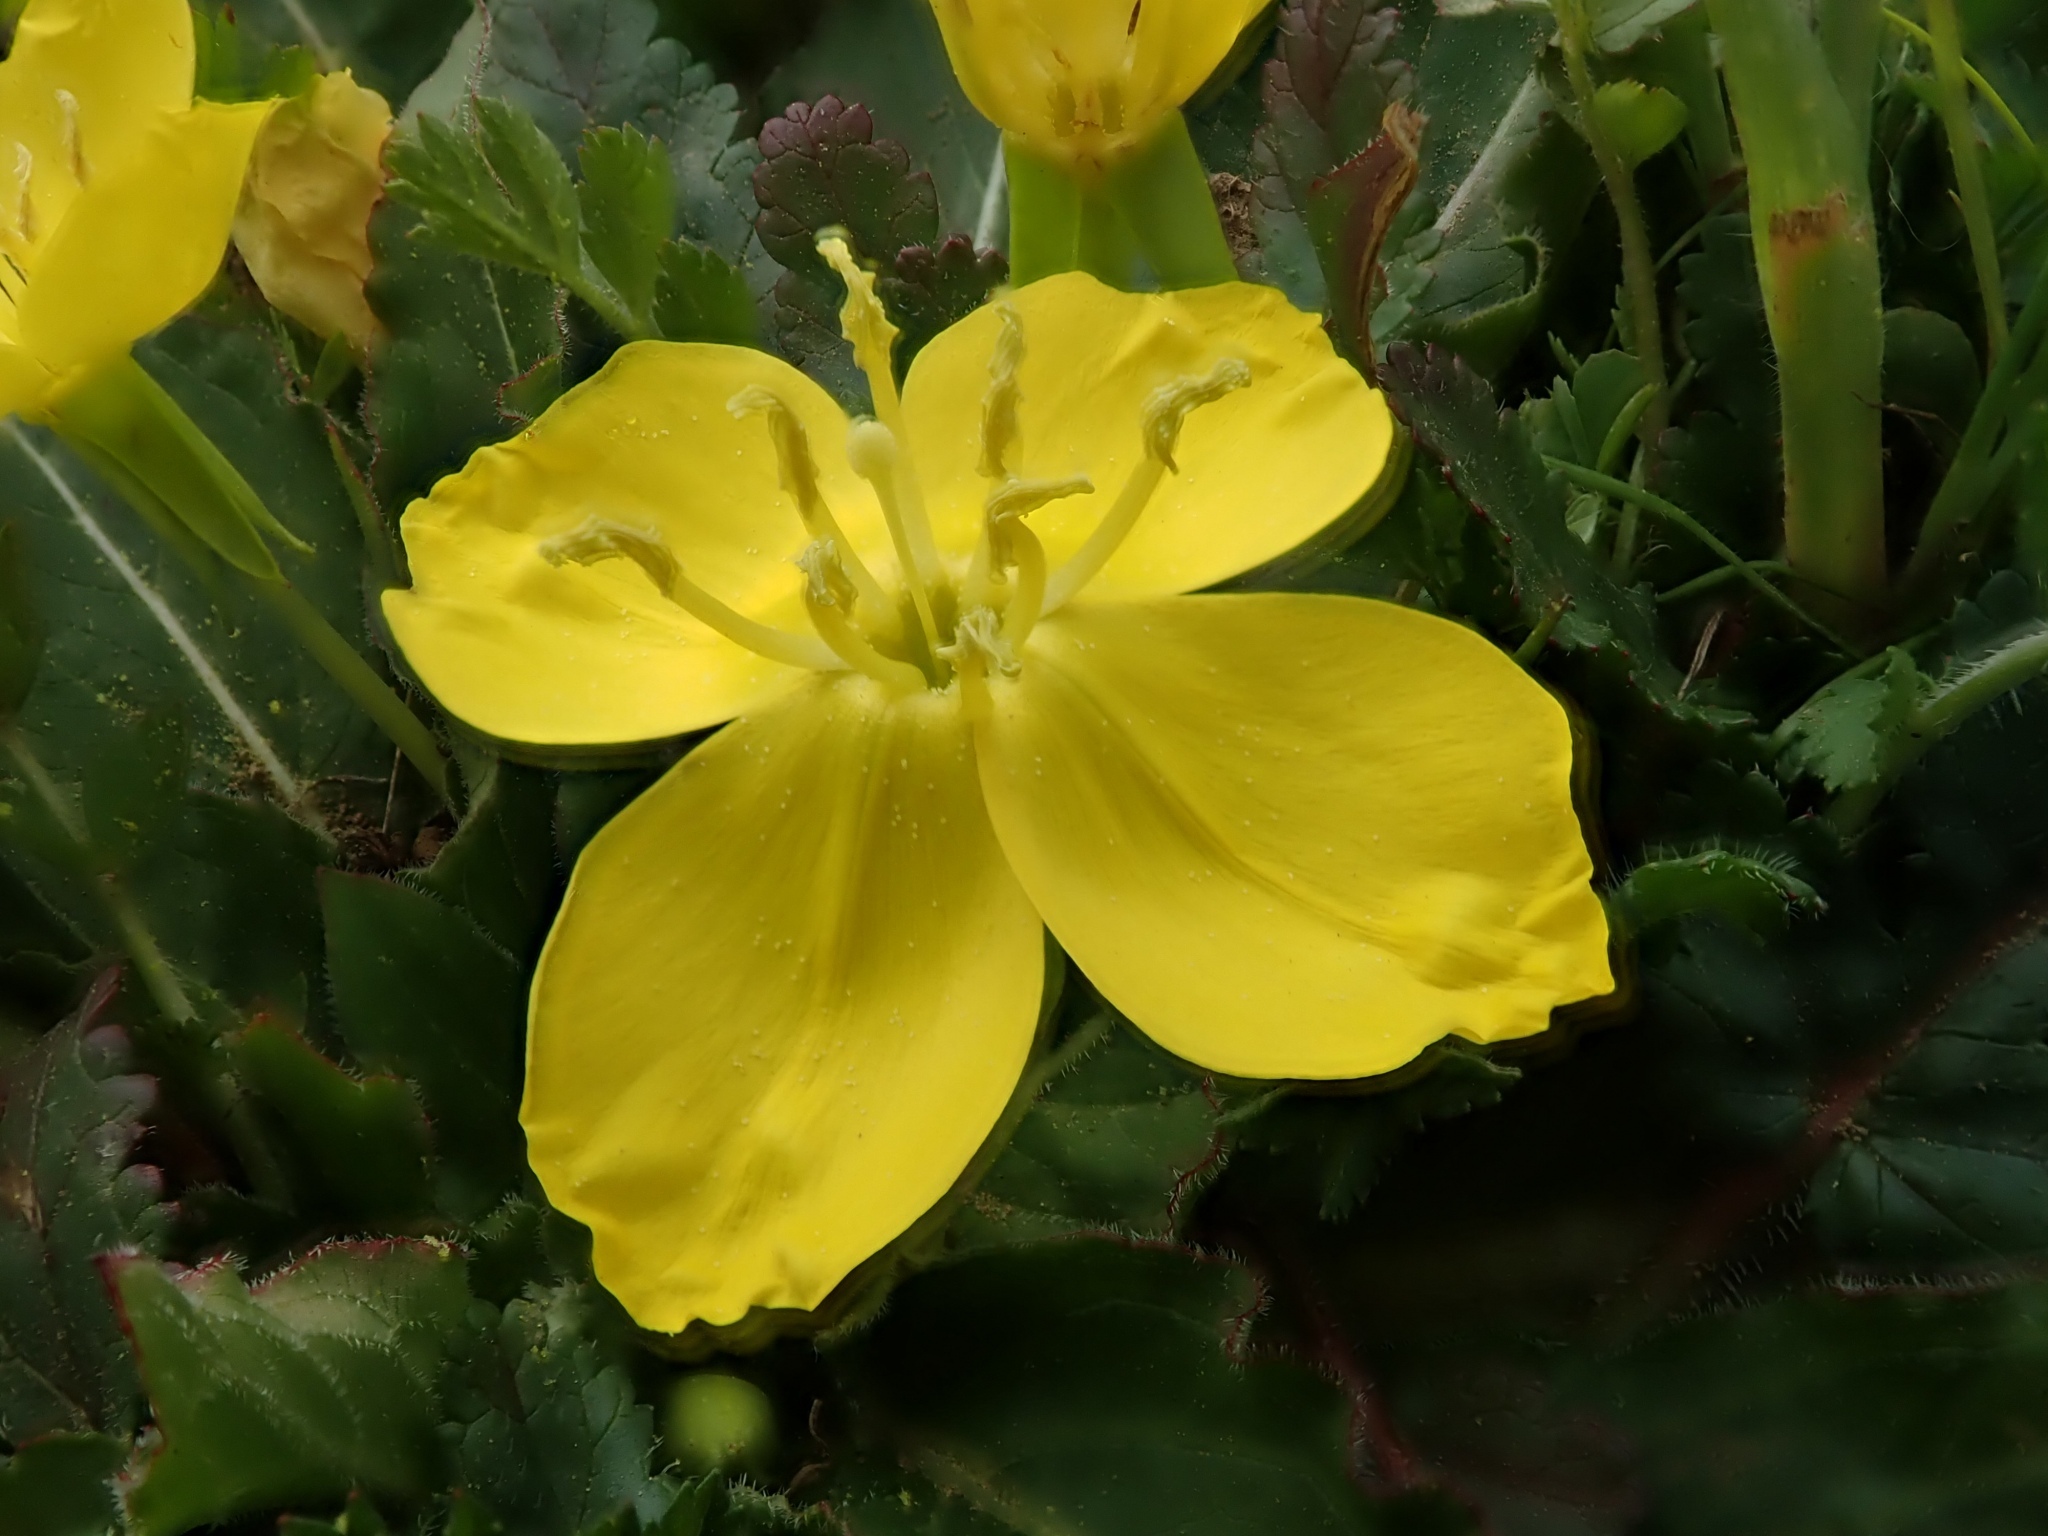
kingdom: Plantae
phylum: Tracheophyta
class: Magnoliopsida
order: Myrtales
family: Onagraceae
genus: Taraxia
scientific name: Taraxia ovata
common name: Goldeneggs
